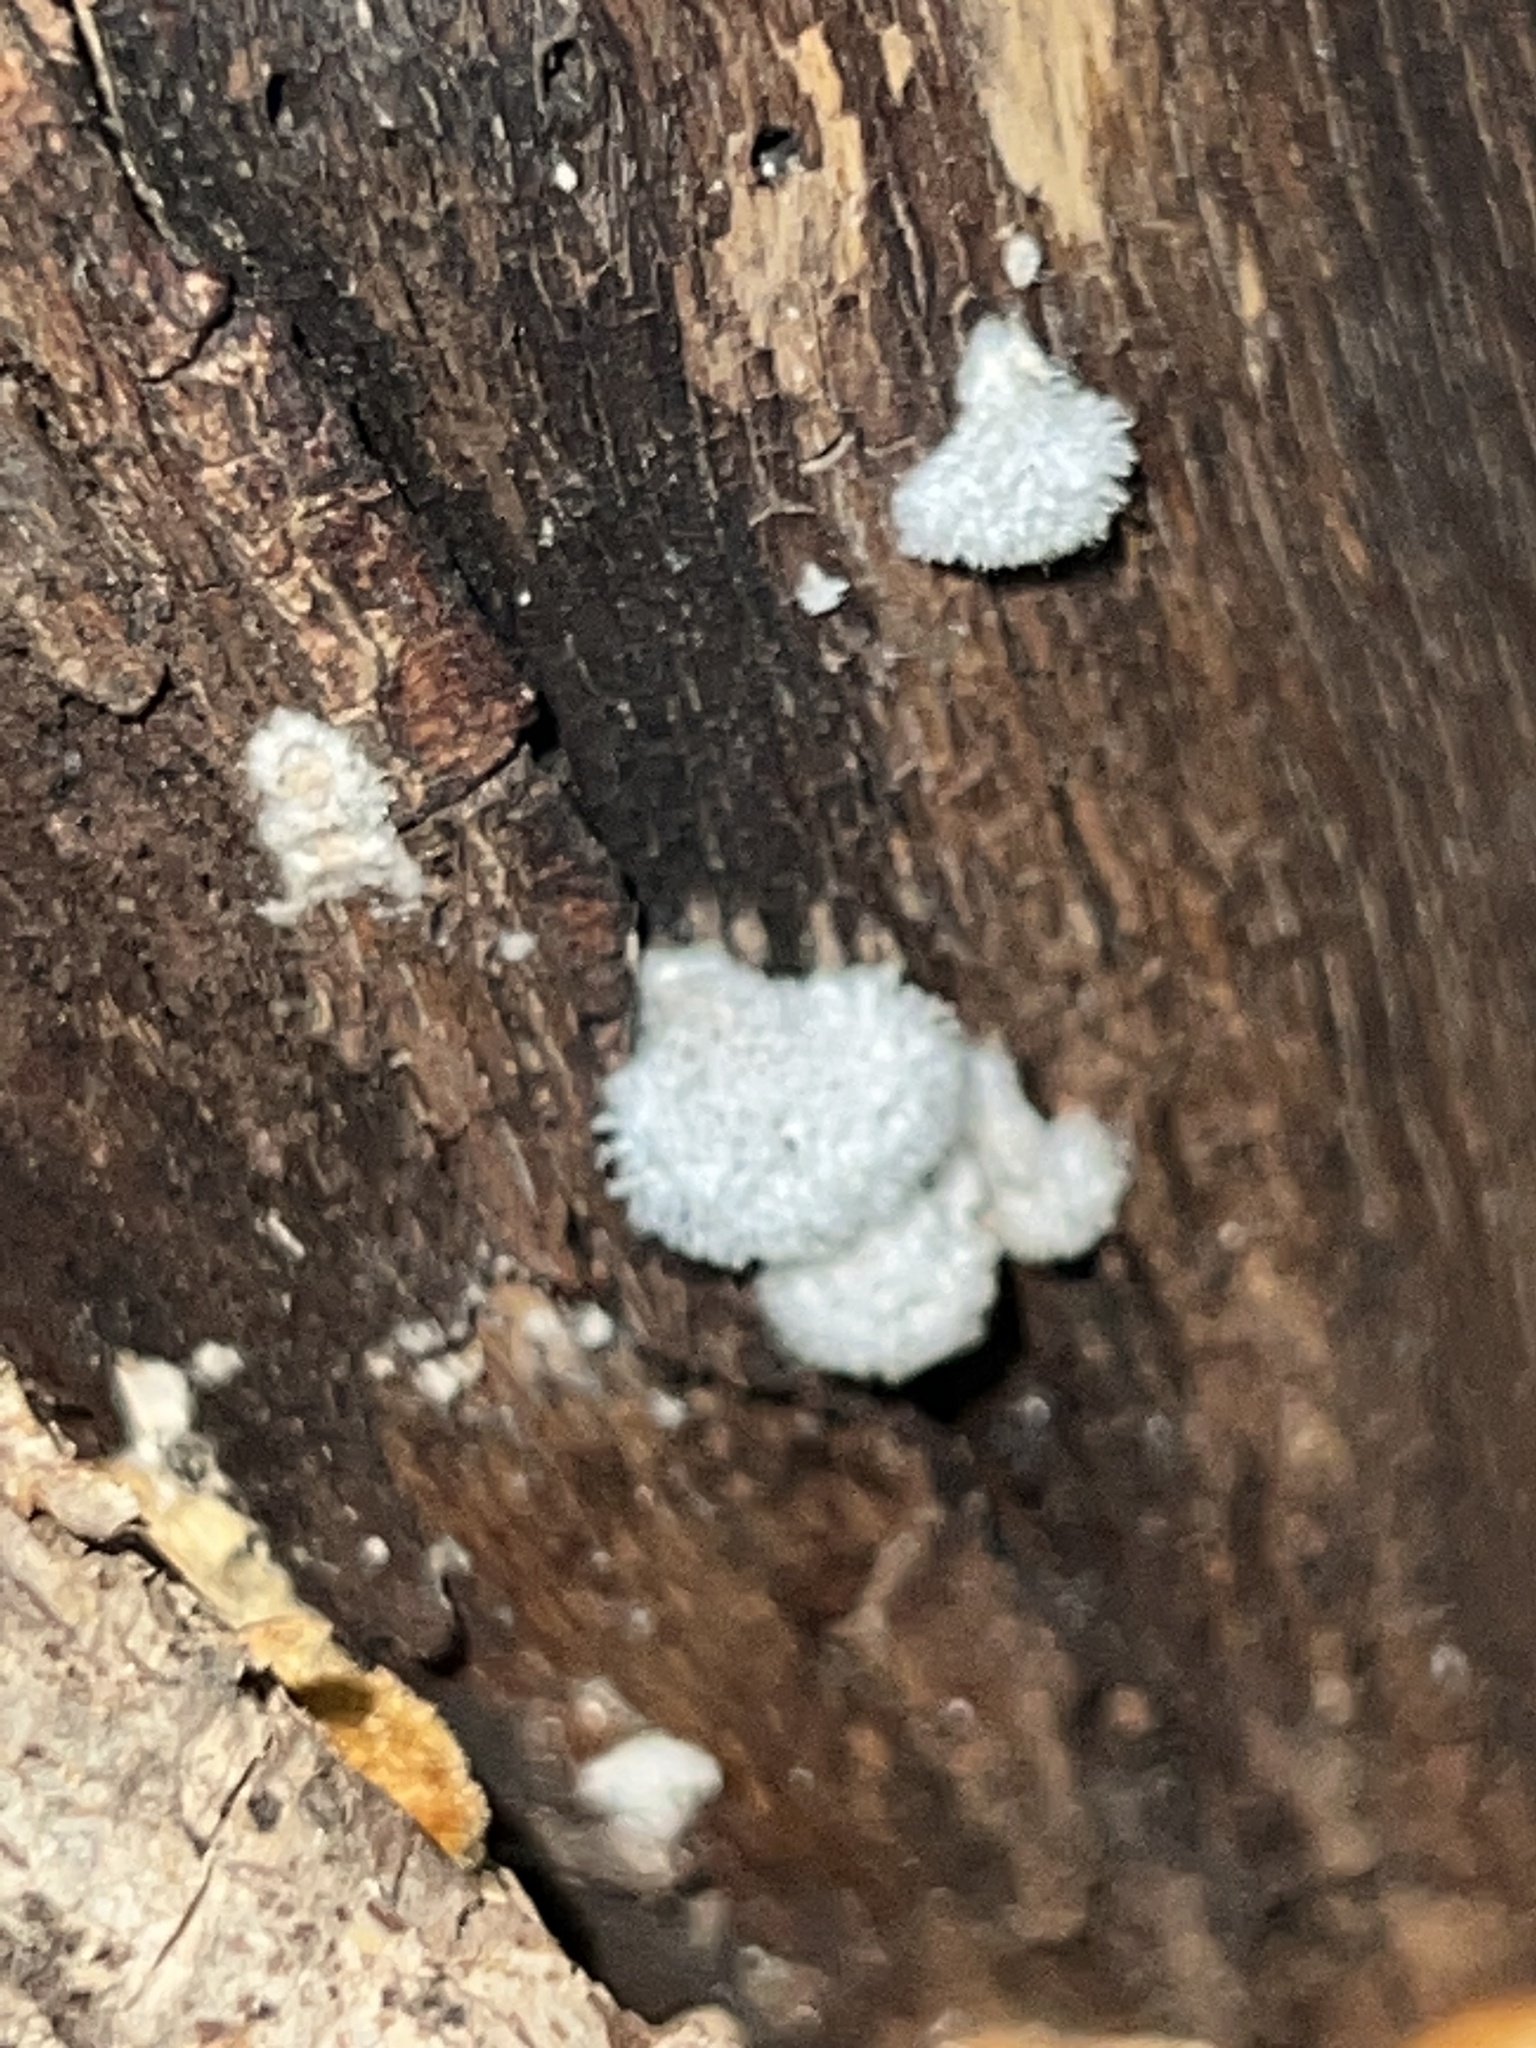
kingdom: Fungi
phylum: Basidiomycota
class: Agaricomycetes
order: Agaricales
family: Schizophyllaceae
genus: Schizophyllum
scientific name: Schizophyllum commune
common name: Common porecrust
